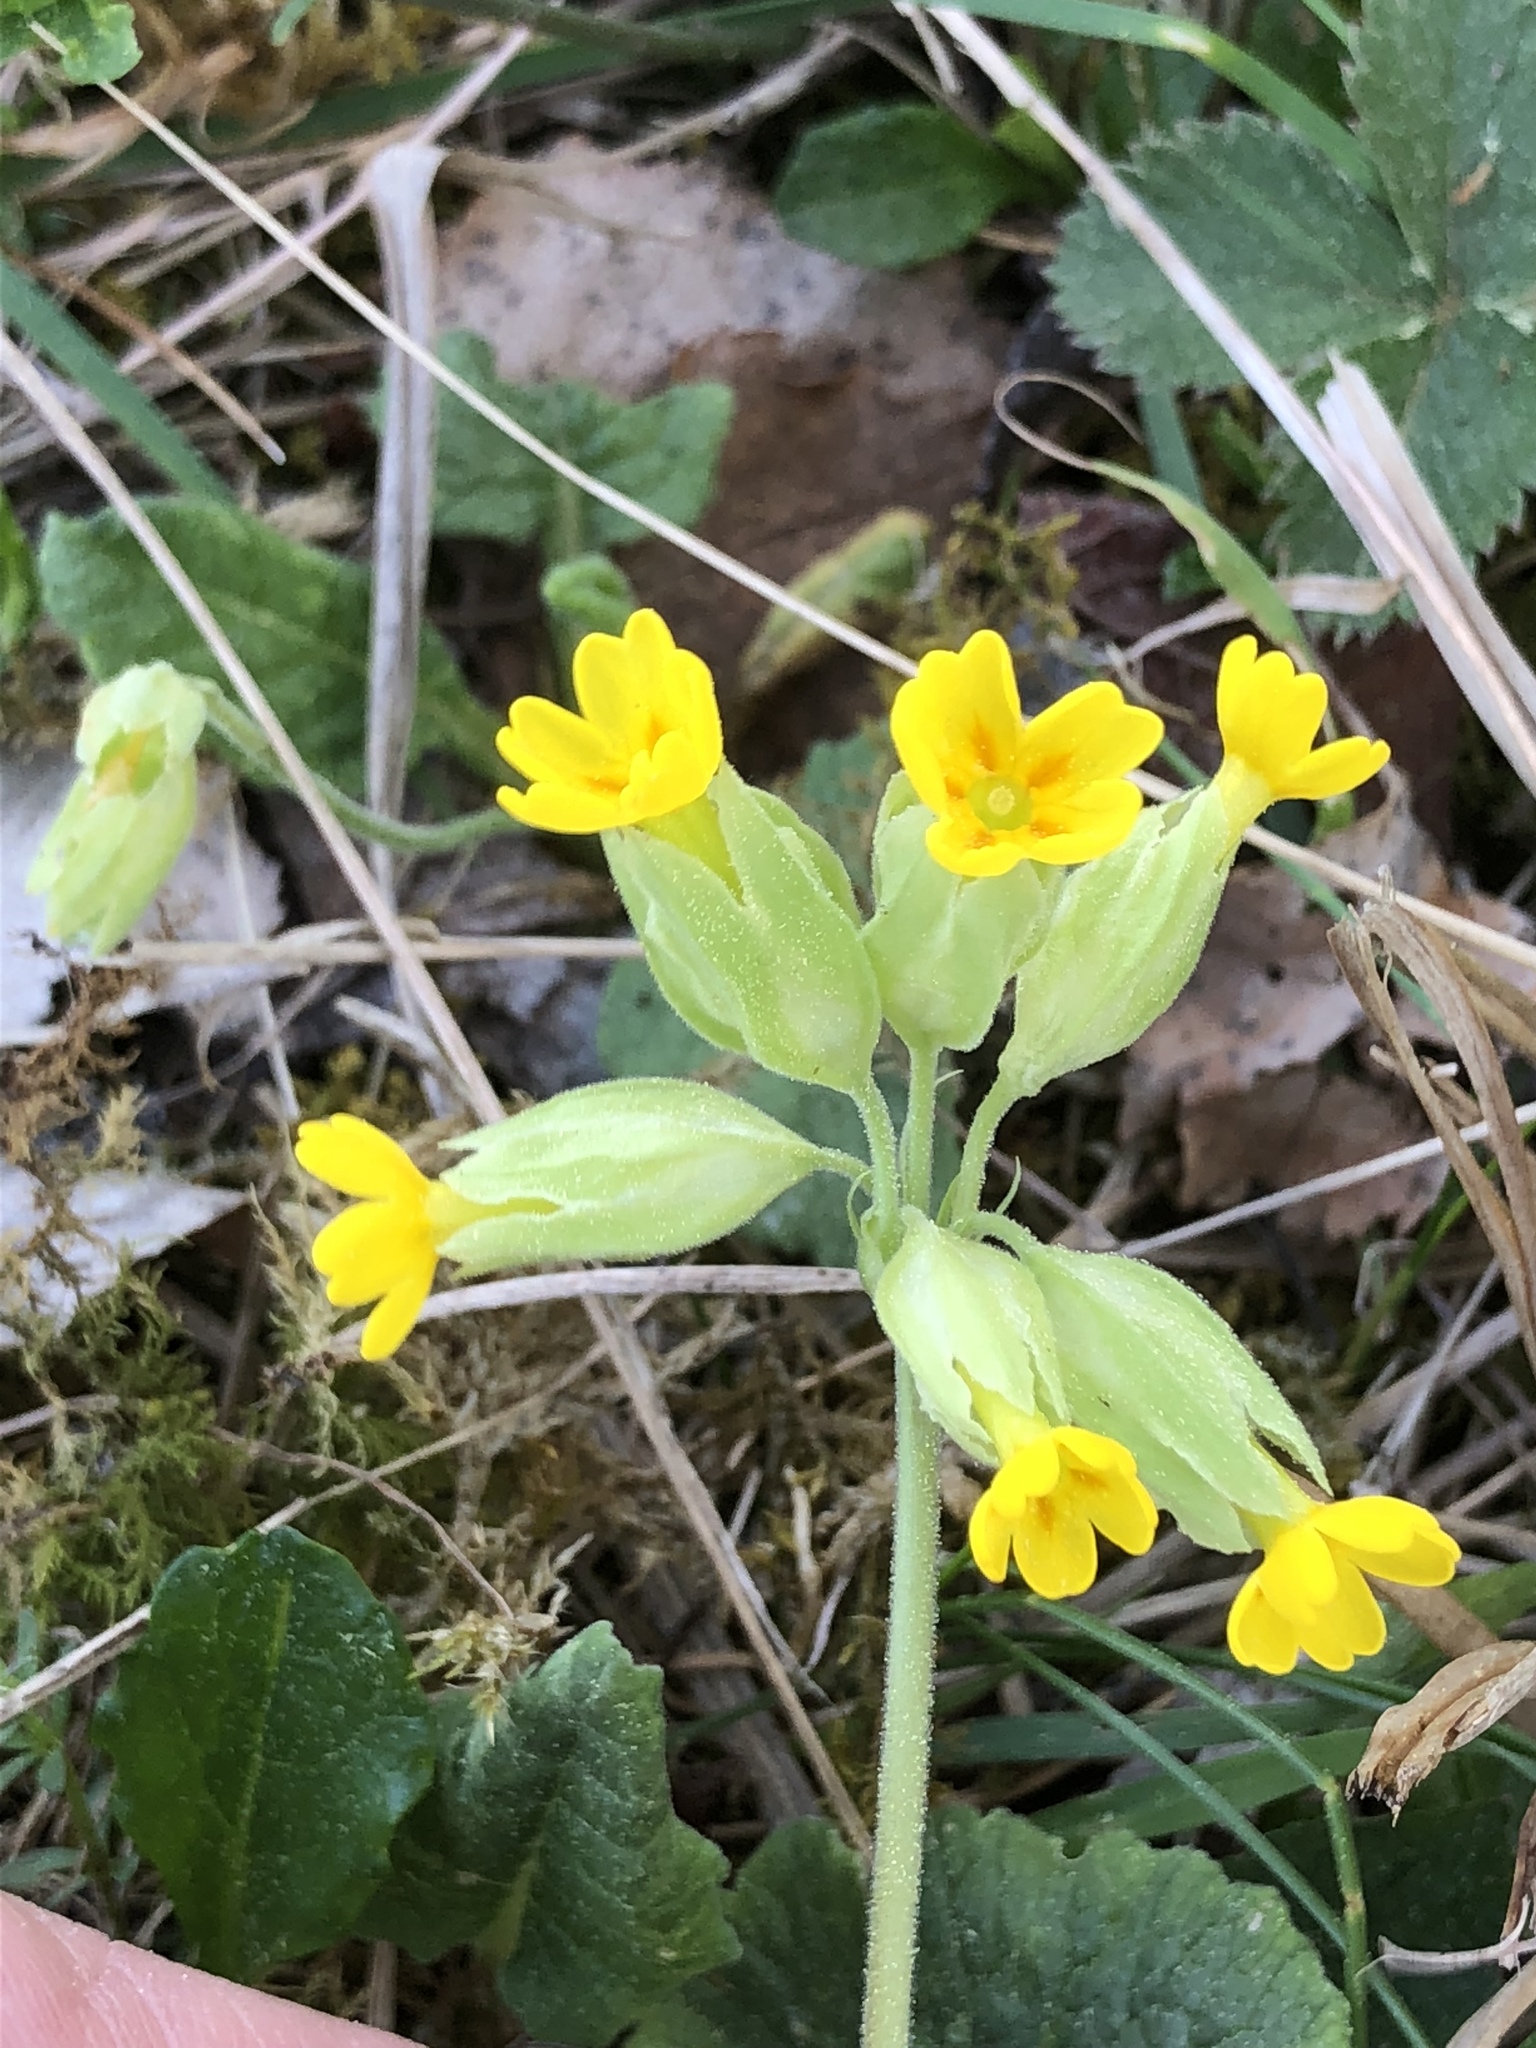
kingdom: Plantae
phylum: Tracheophyta
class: Magnoliopsida
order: Ericales
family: Primulaceae
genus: Primula
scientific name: Primula veris
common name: Cowslip
